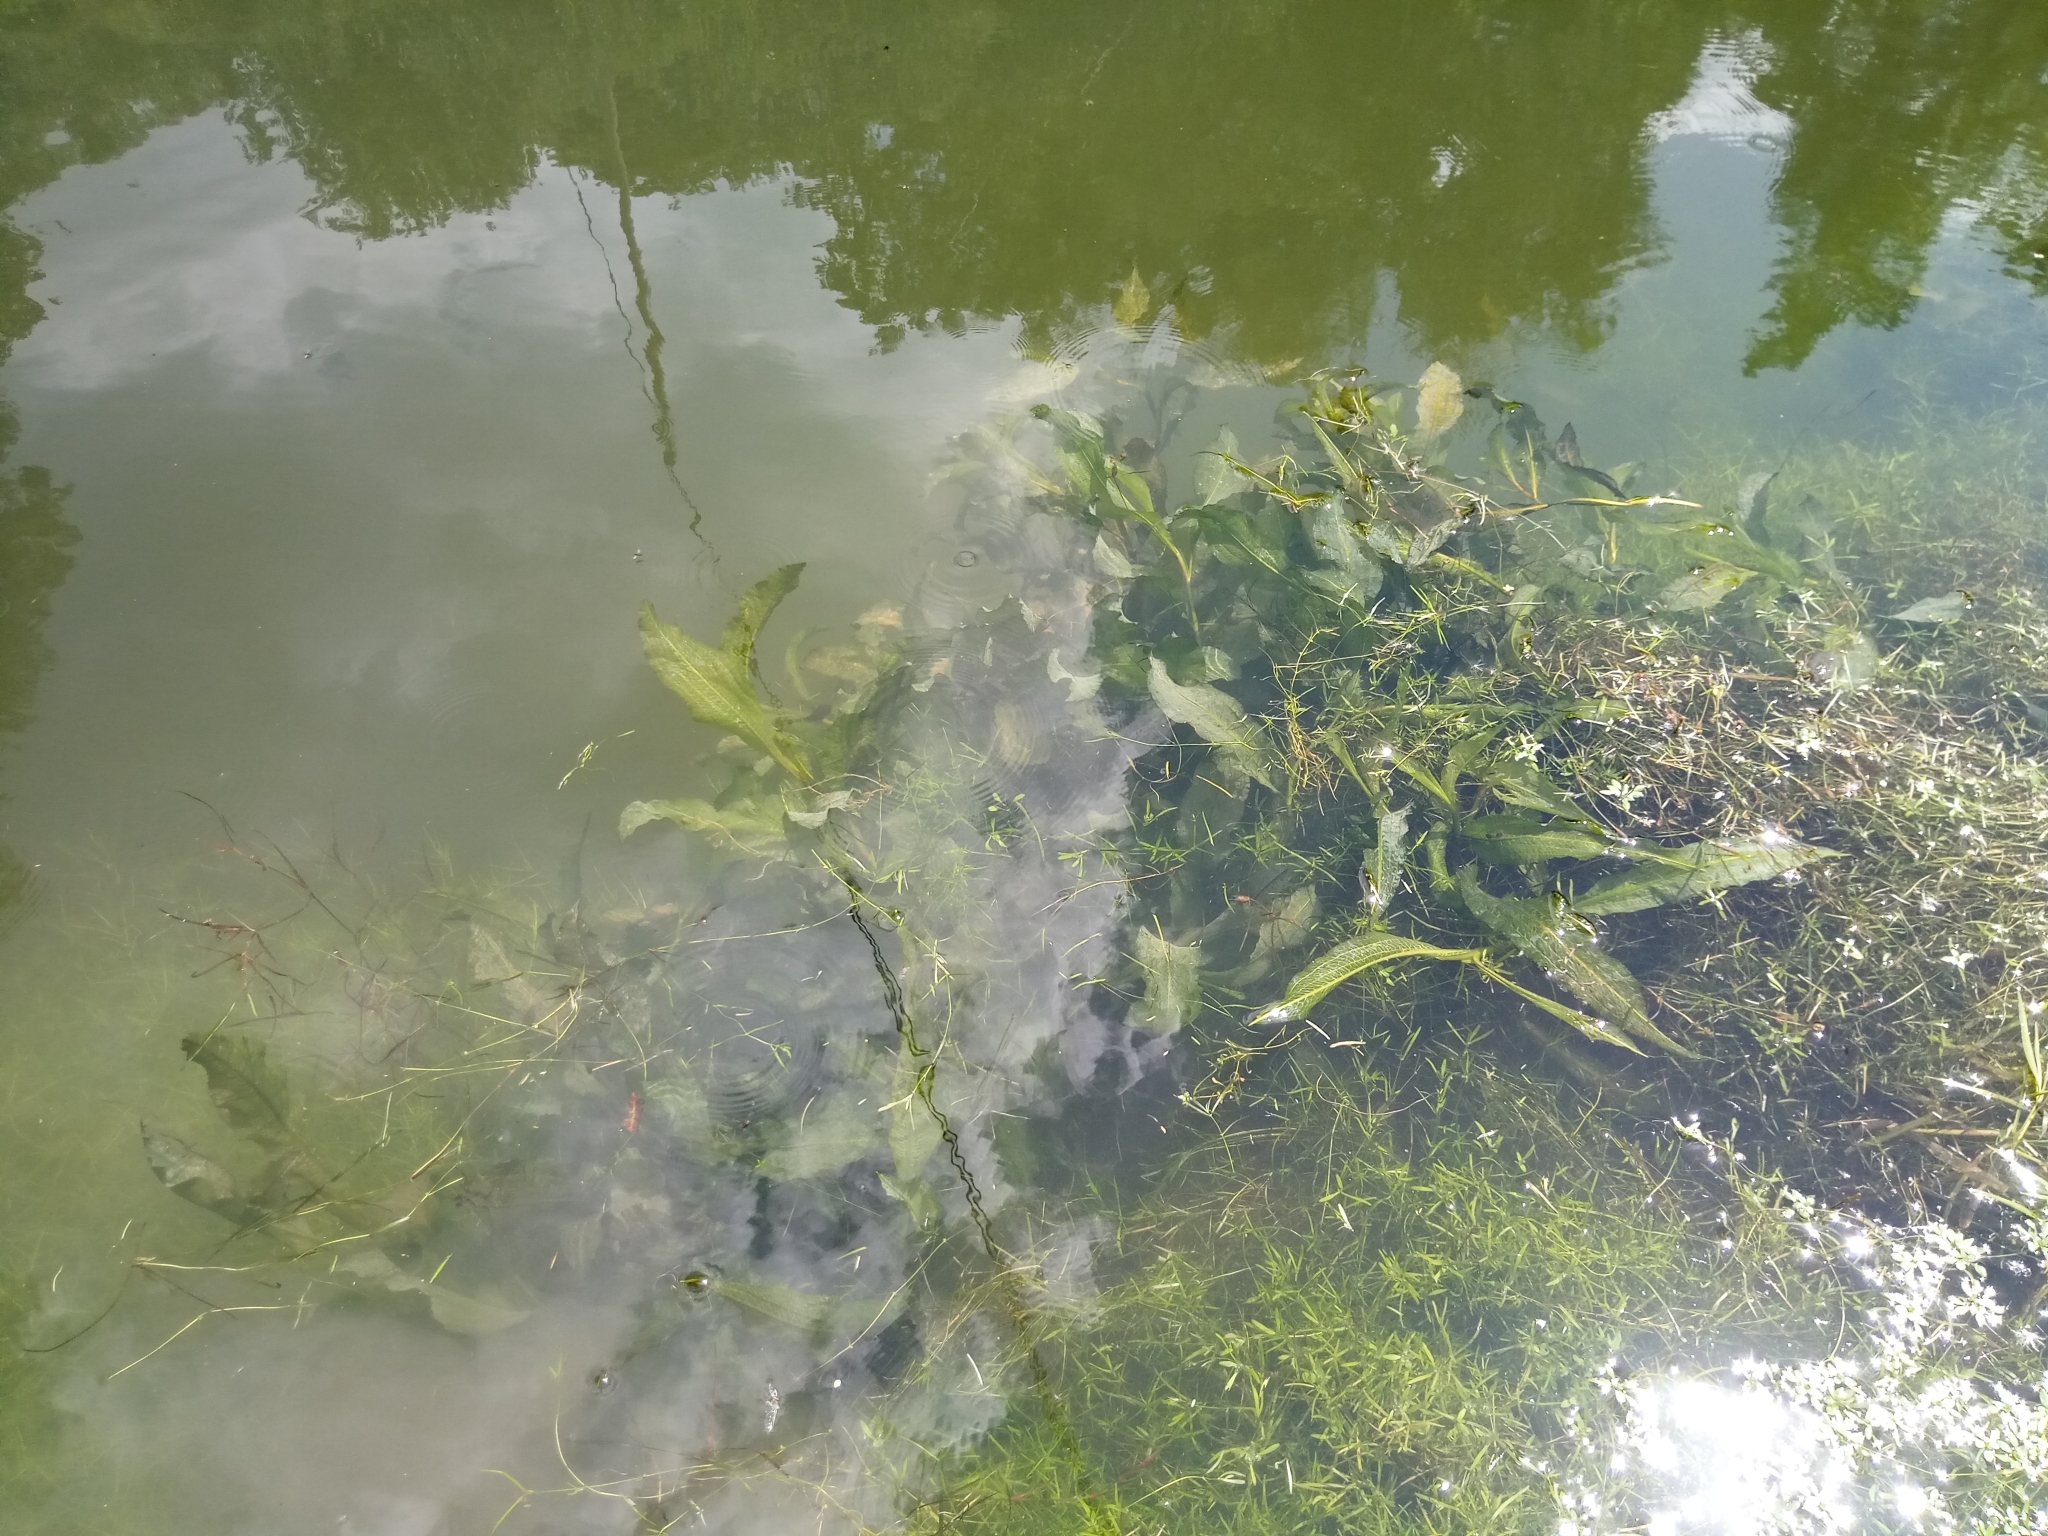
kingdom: Plantae
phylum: Tracheophyta
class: Liliopsida
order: Alismatales
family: Potamogetonaceae
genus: Potamogeton
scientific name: Potamogeton lucens
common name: Shining pondweed
